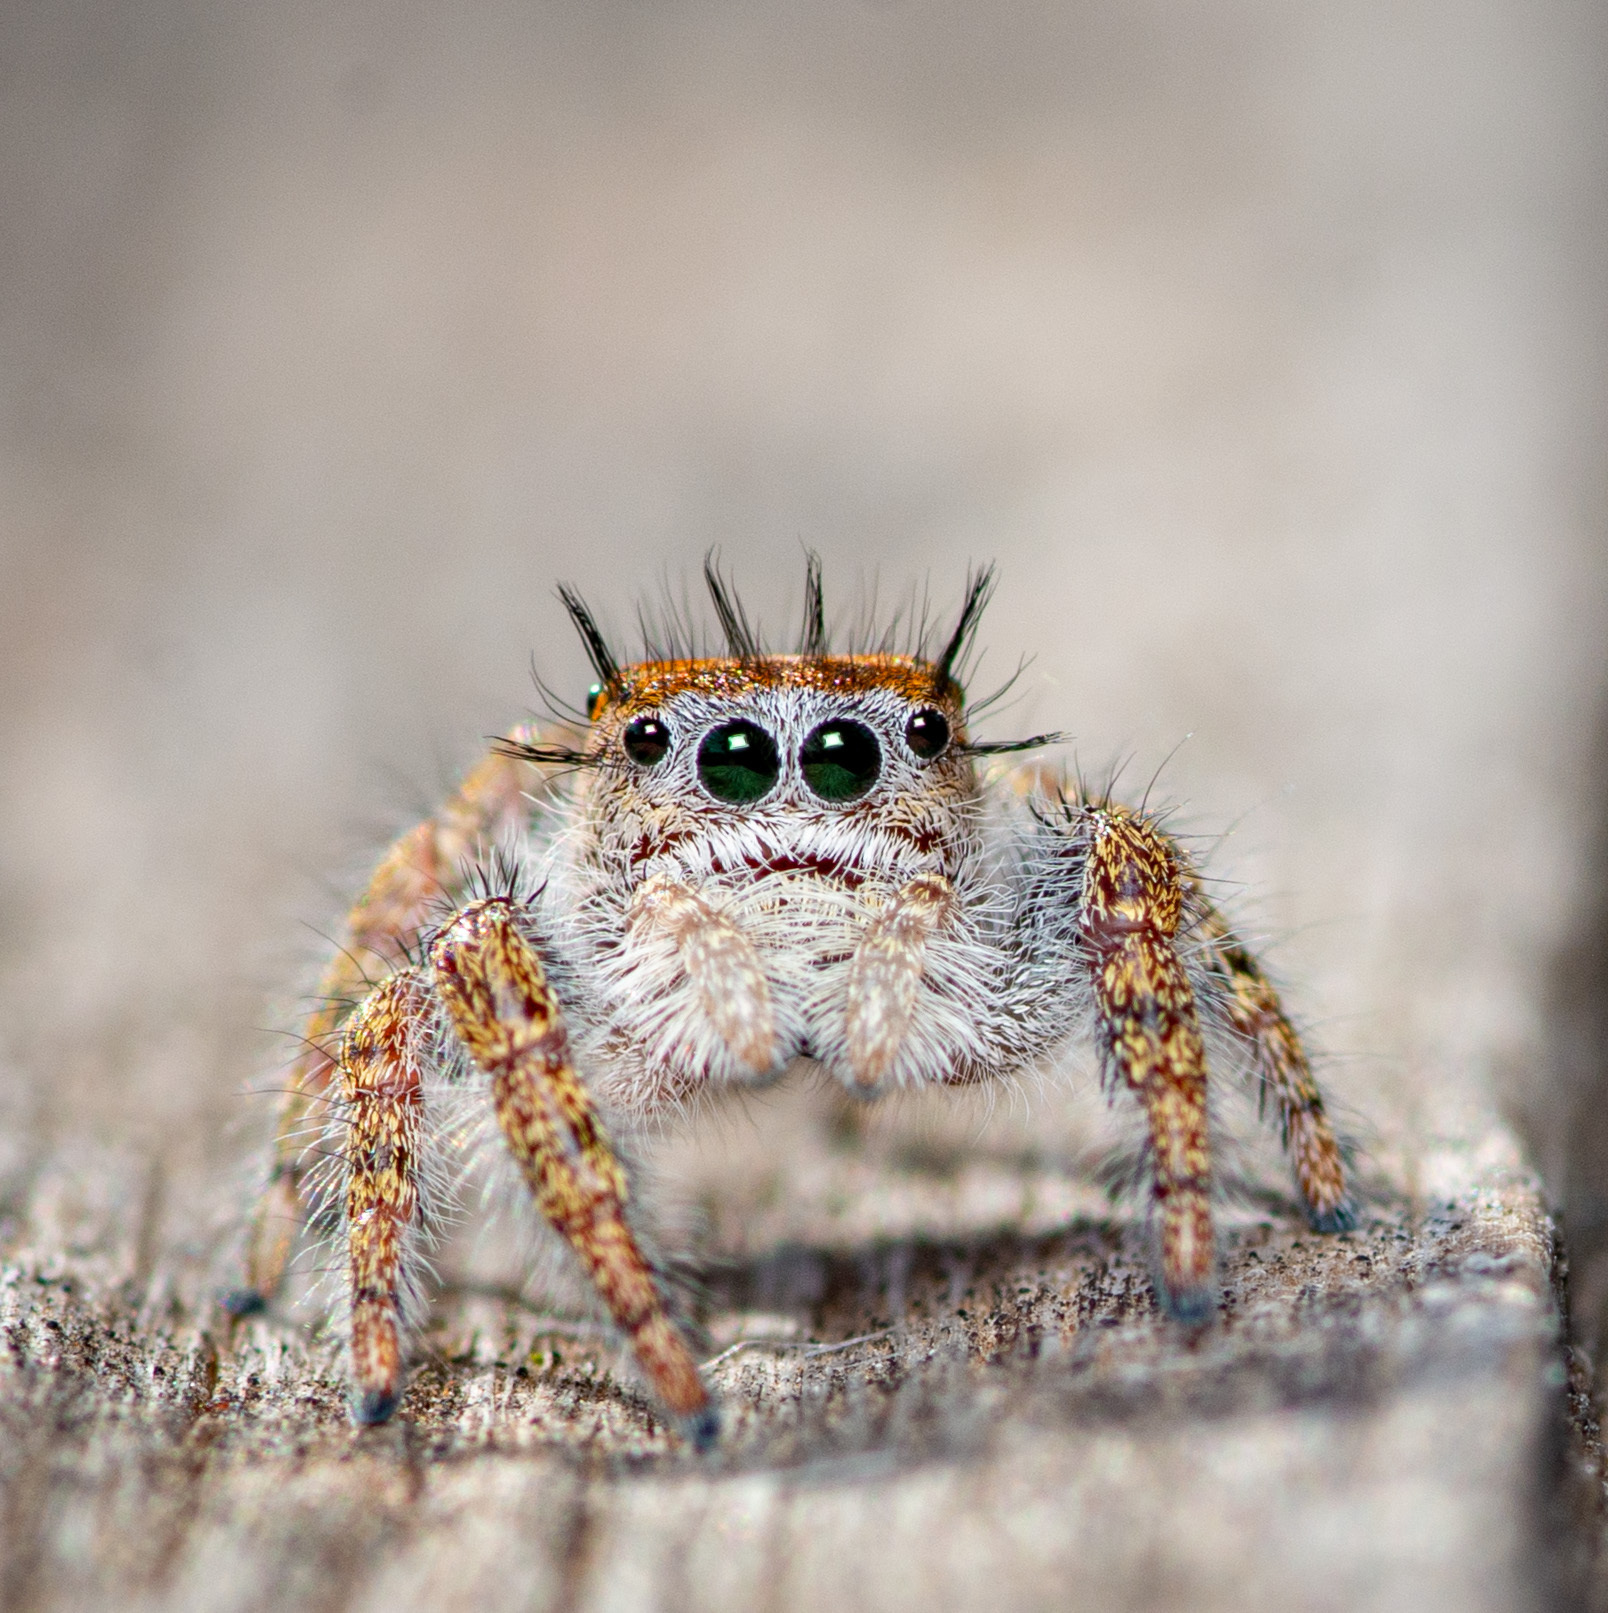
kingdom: Animalia
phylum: Arthropoda
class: Arachnida
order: Araneae
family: Salticidae
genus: Phidippus
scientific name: Phidippus carolinensis
